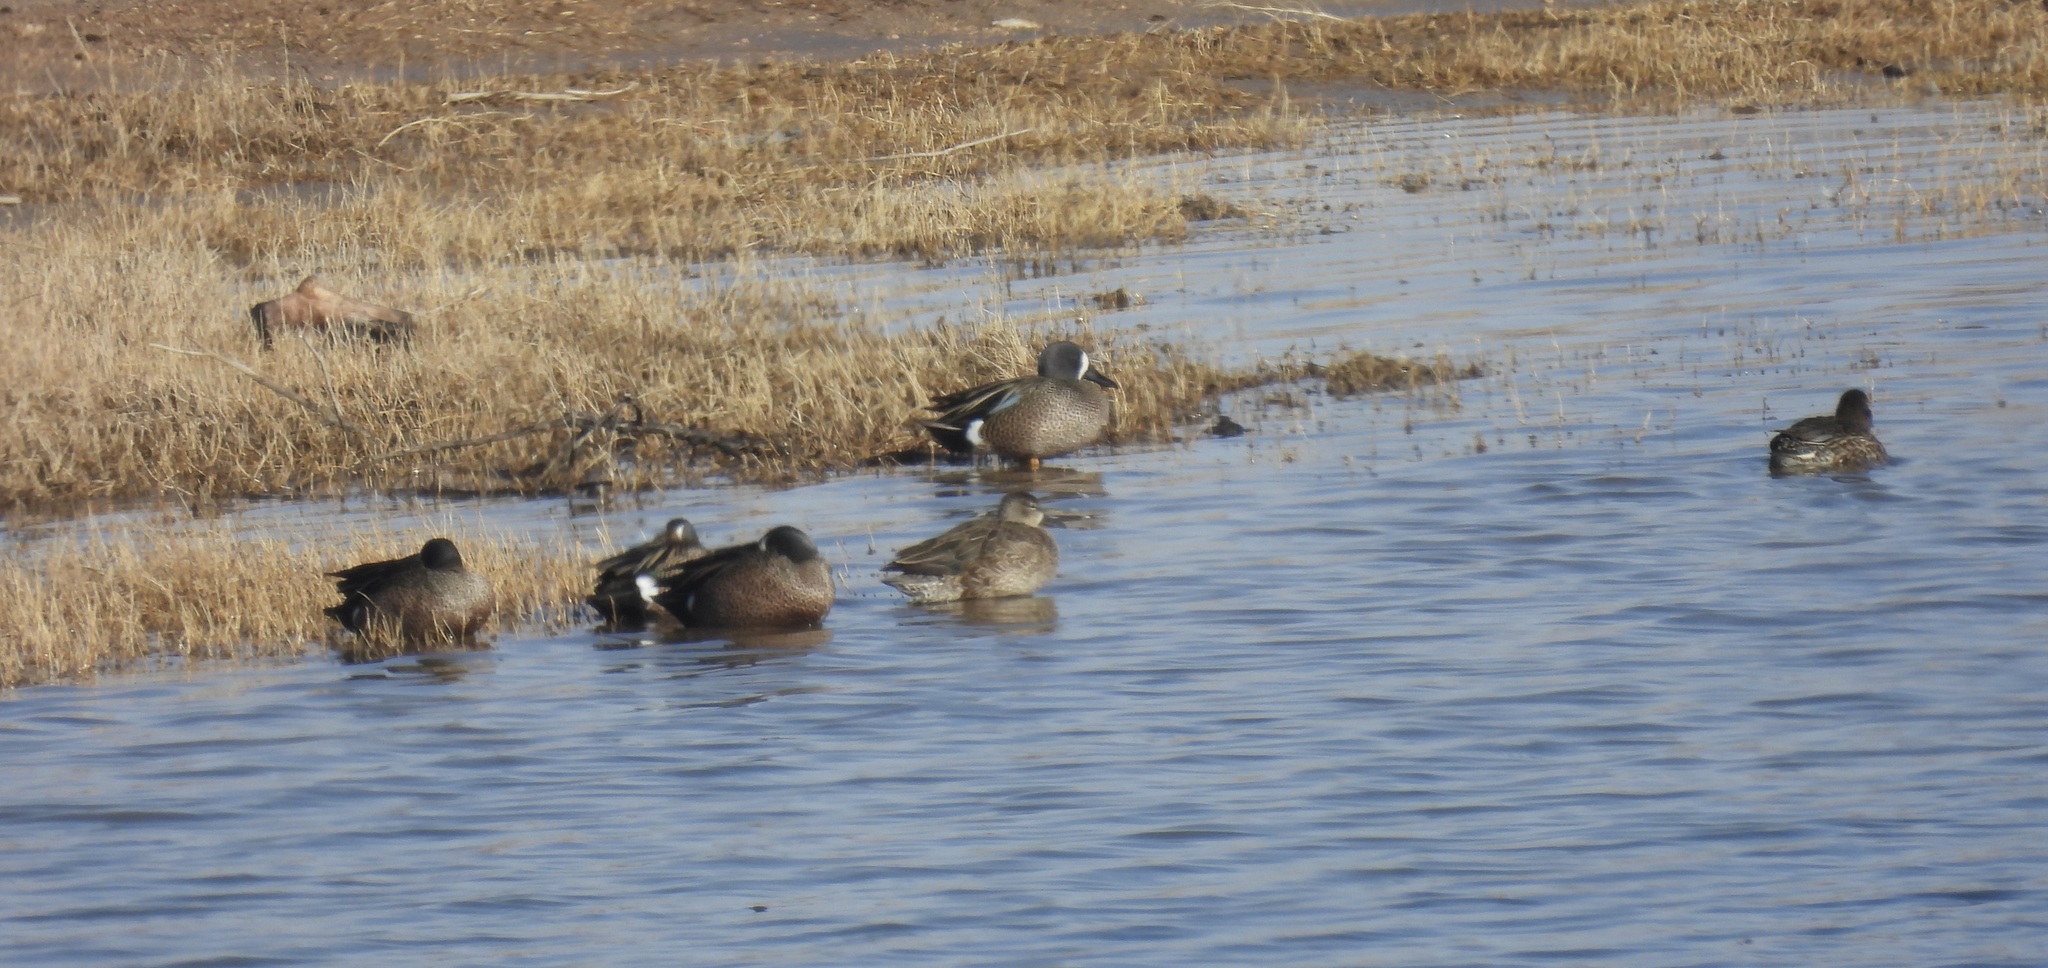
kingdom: Animalia
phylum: Chordata
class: Aves
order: Anseriformes
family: Anatidae
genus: Spatula
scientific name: Spatula discors
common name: Blue-winged teal
